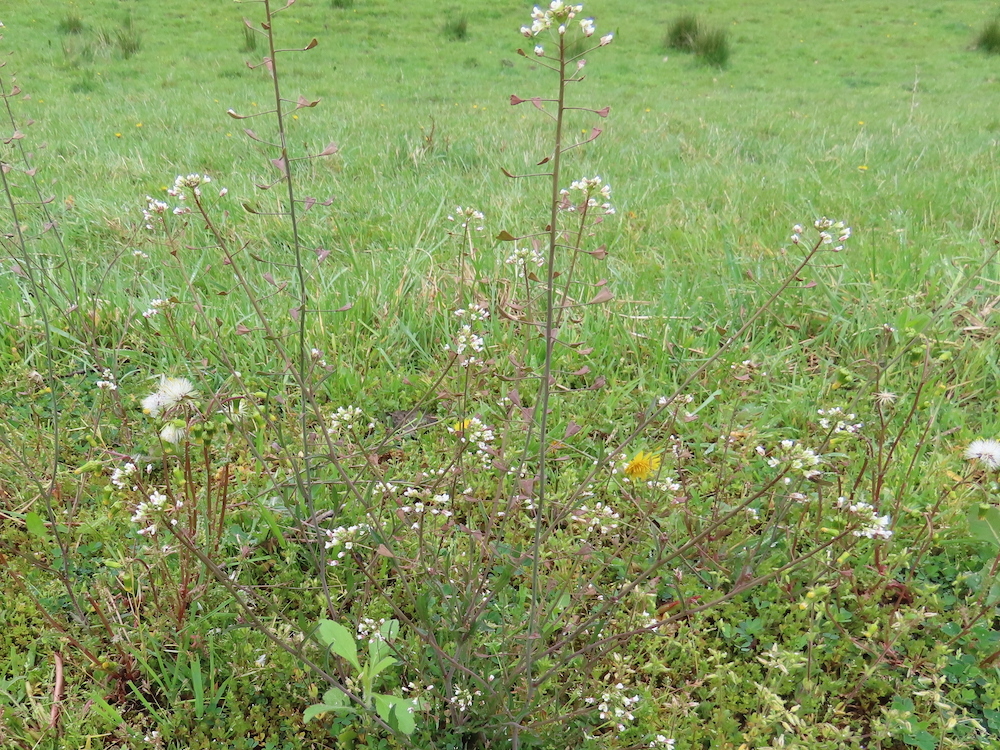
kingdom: Plantae
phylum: Tracheophyta
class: Magnoliopsida
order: Brassicales
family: Brassicaceae
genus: Capsella
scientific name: Capsella bursa-pastoris
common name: Shepherd's purse
